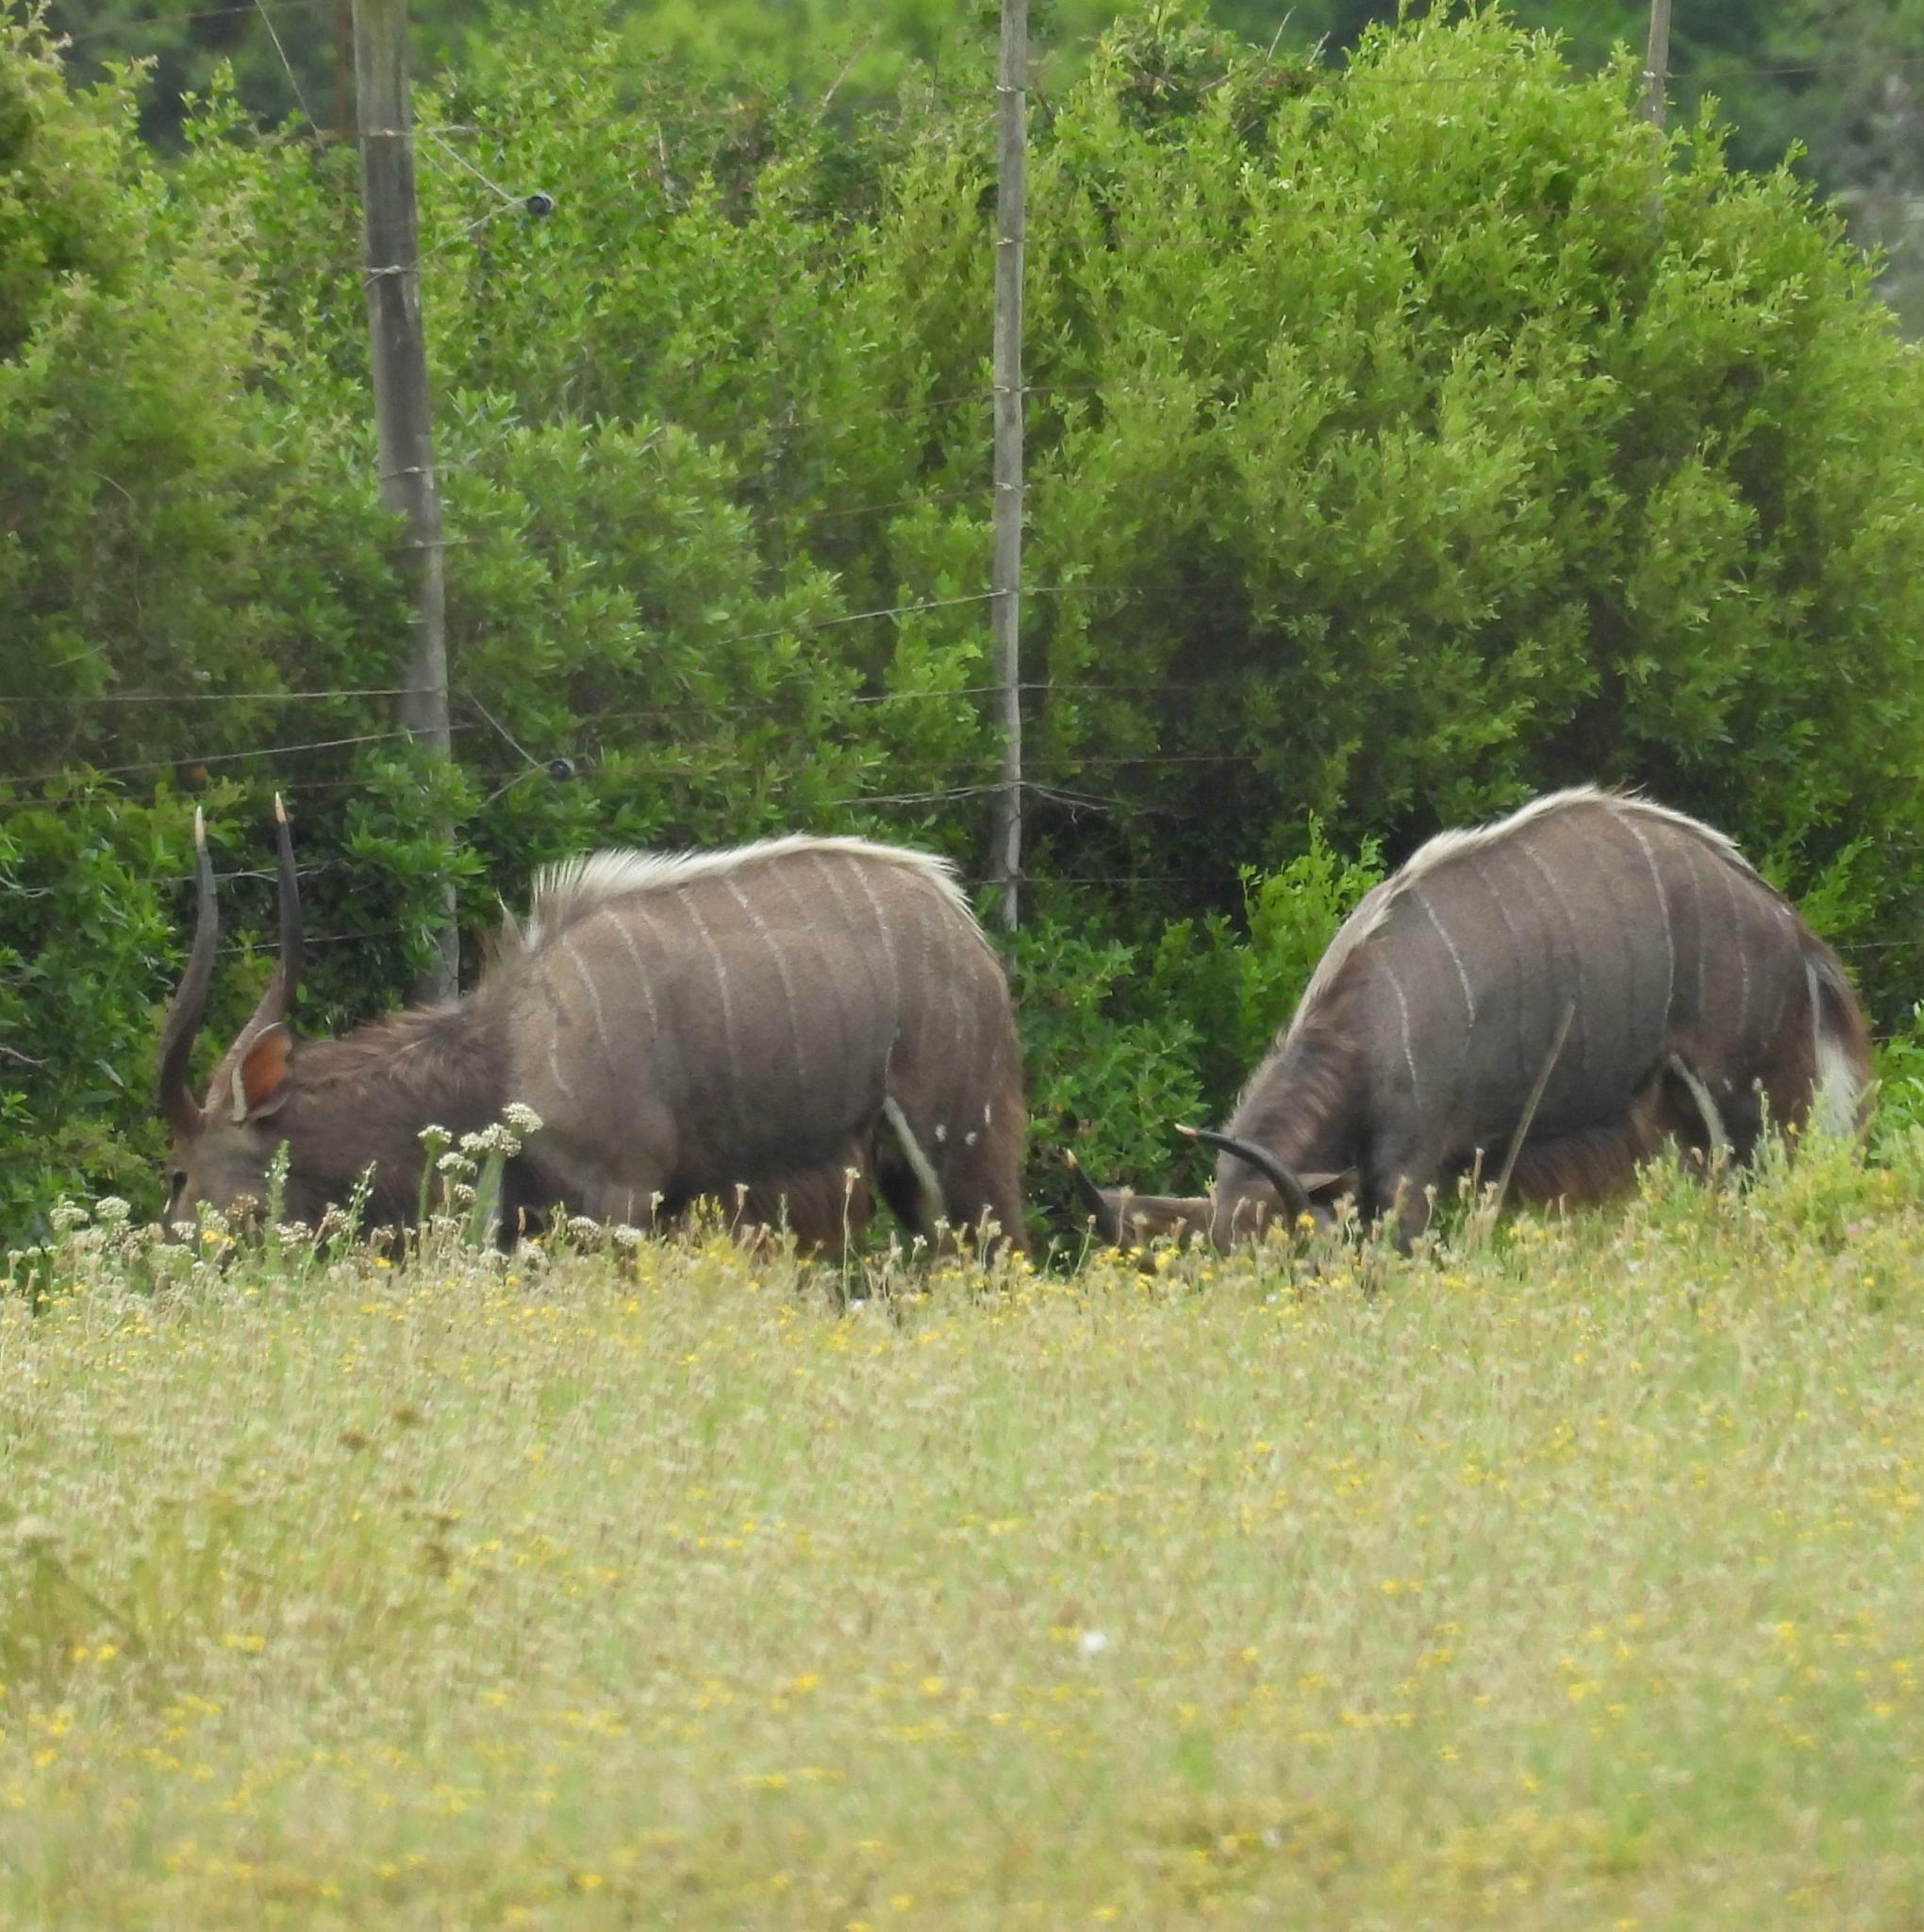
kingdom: Animalia
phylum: Chordata
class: Mammalia
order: Artiodactyla
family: Bovidae
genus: Tragelaphus
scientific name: Tragelaphus angasii
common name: Nyala
